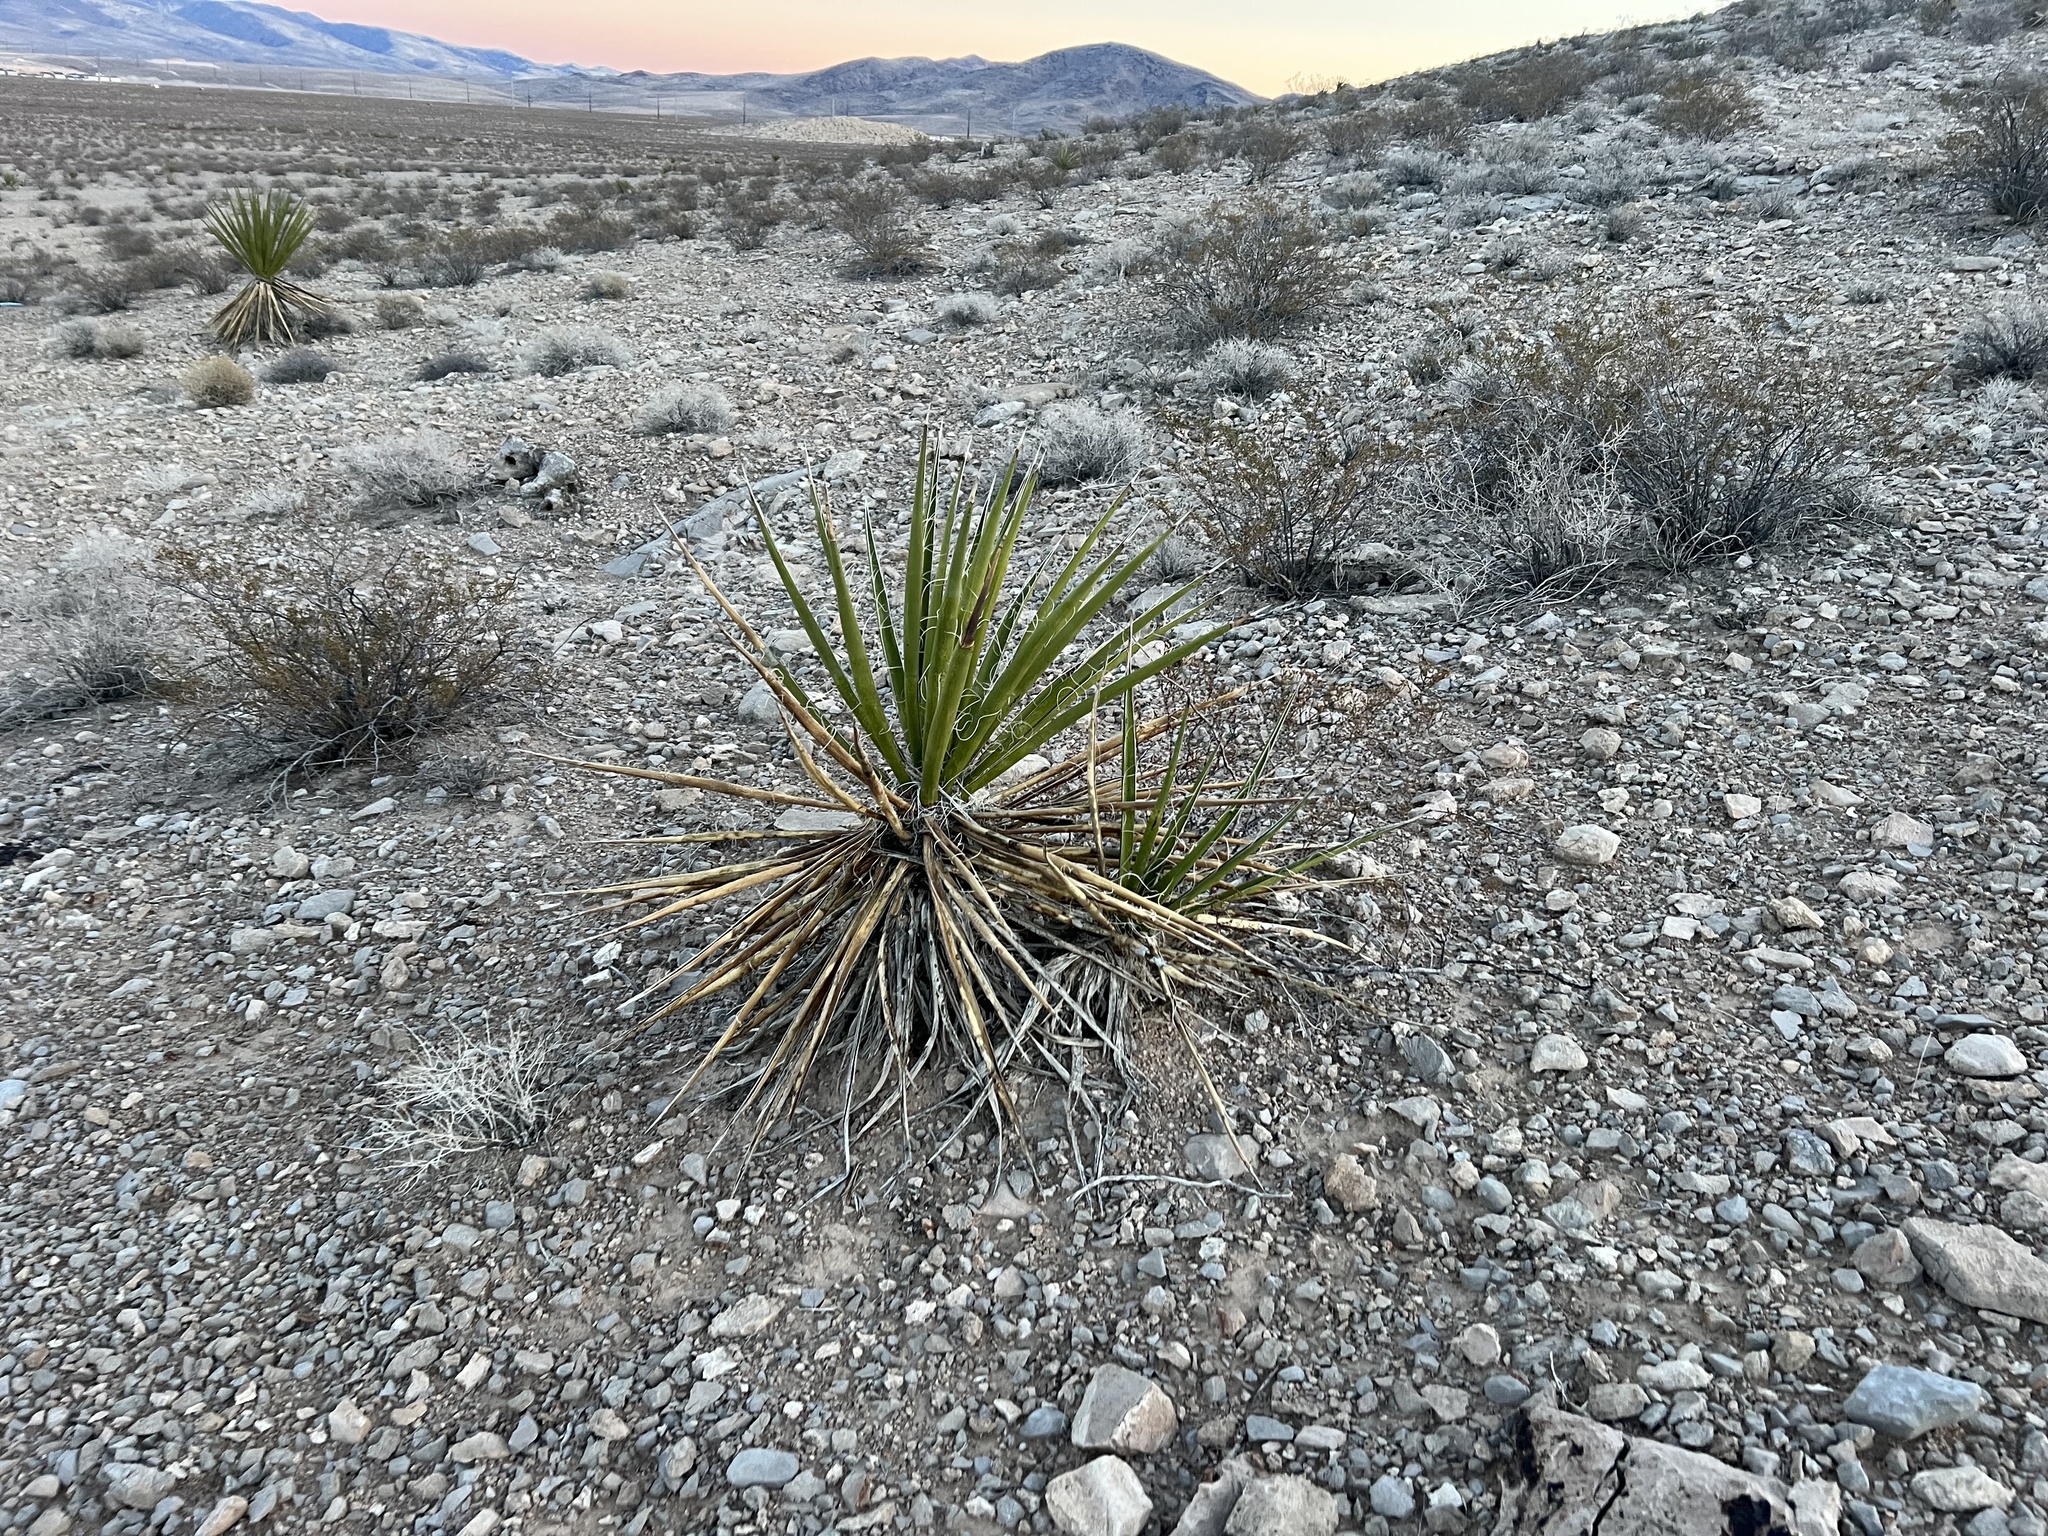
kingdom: Plantae
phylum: Tracheophyta
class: Liliopsida
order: Asparagales
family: Asparagaceae
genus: Yucca
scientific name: Yucca schidigera
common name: Mojave yucca
